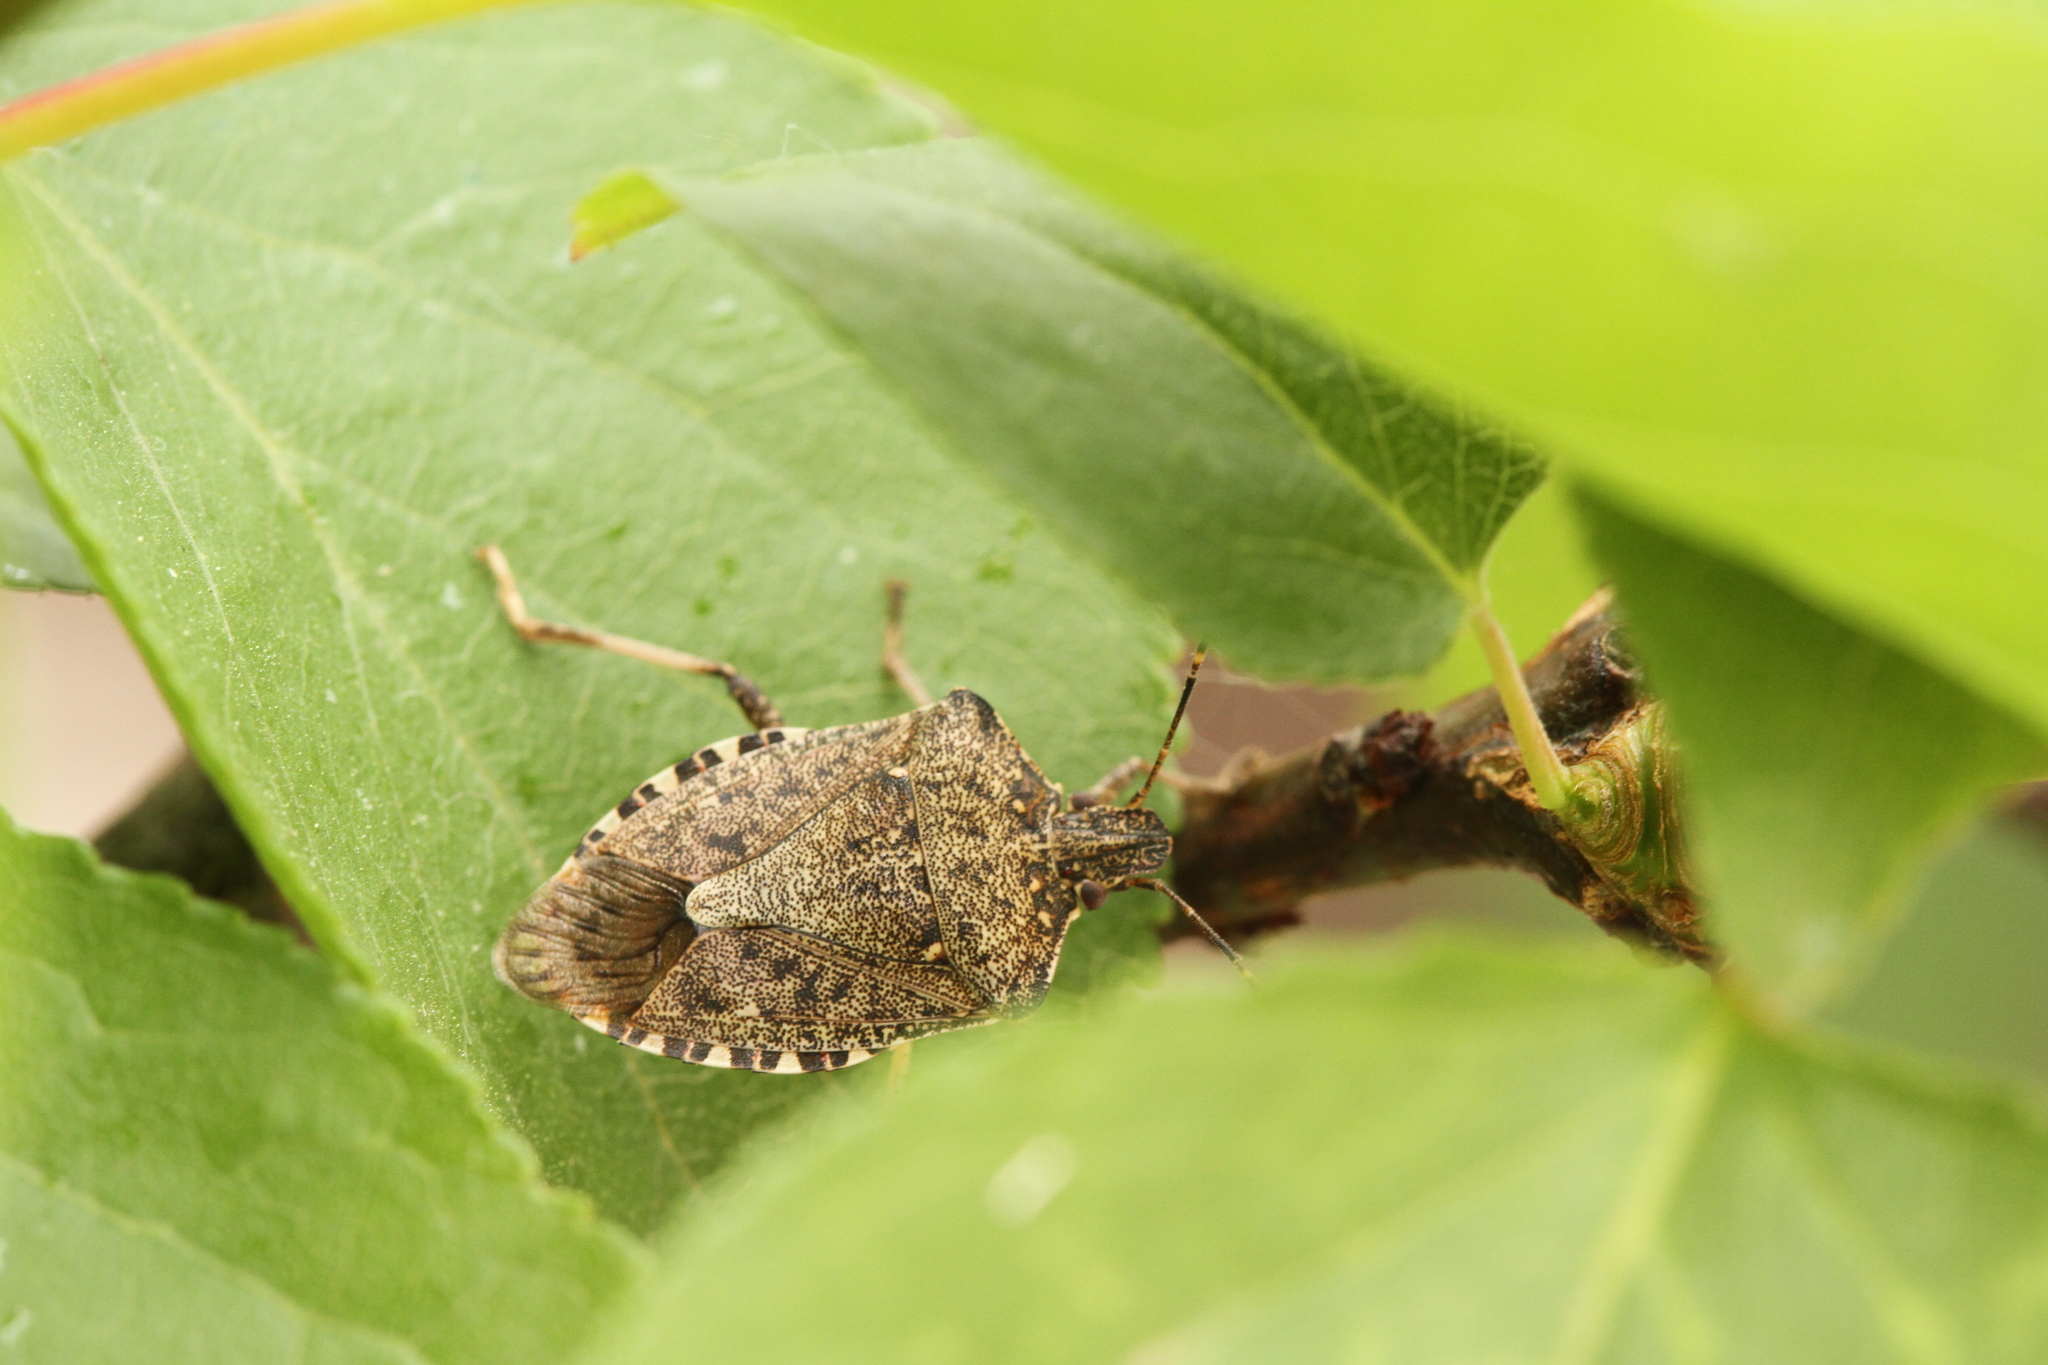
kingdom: Animalia
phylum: Arthropoda
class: Insecta
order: Hemiptera
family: Pentatomidae
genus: Halyomorpha
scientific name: Halyomorpha halys
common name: Brown marmorated stink bug
